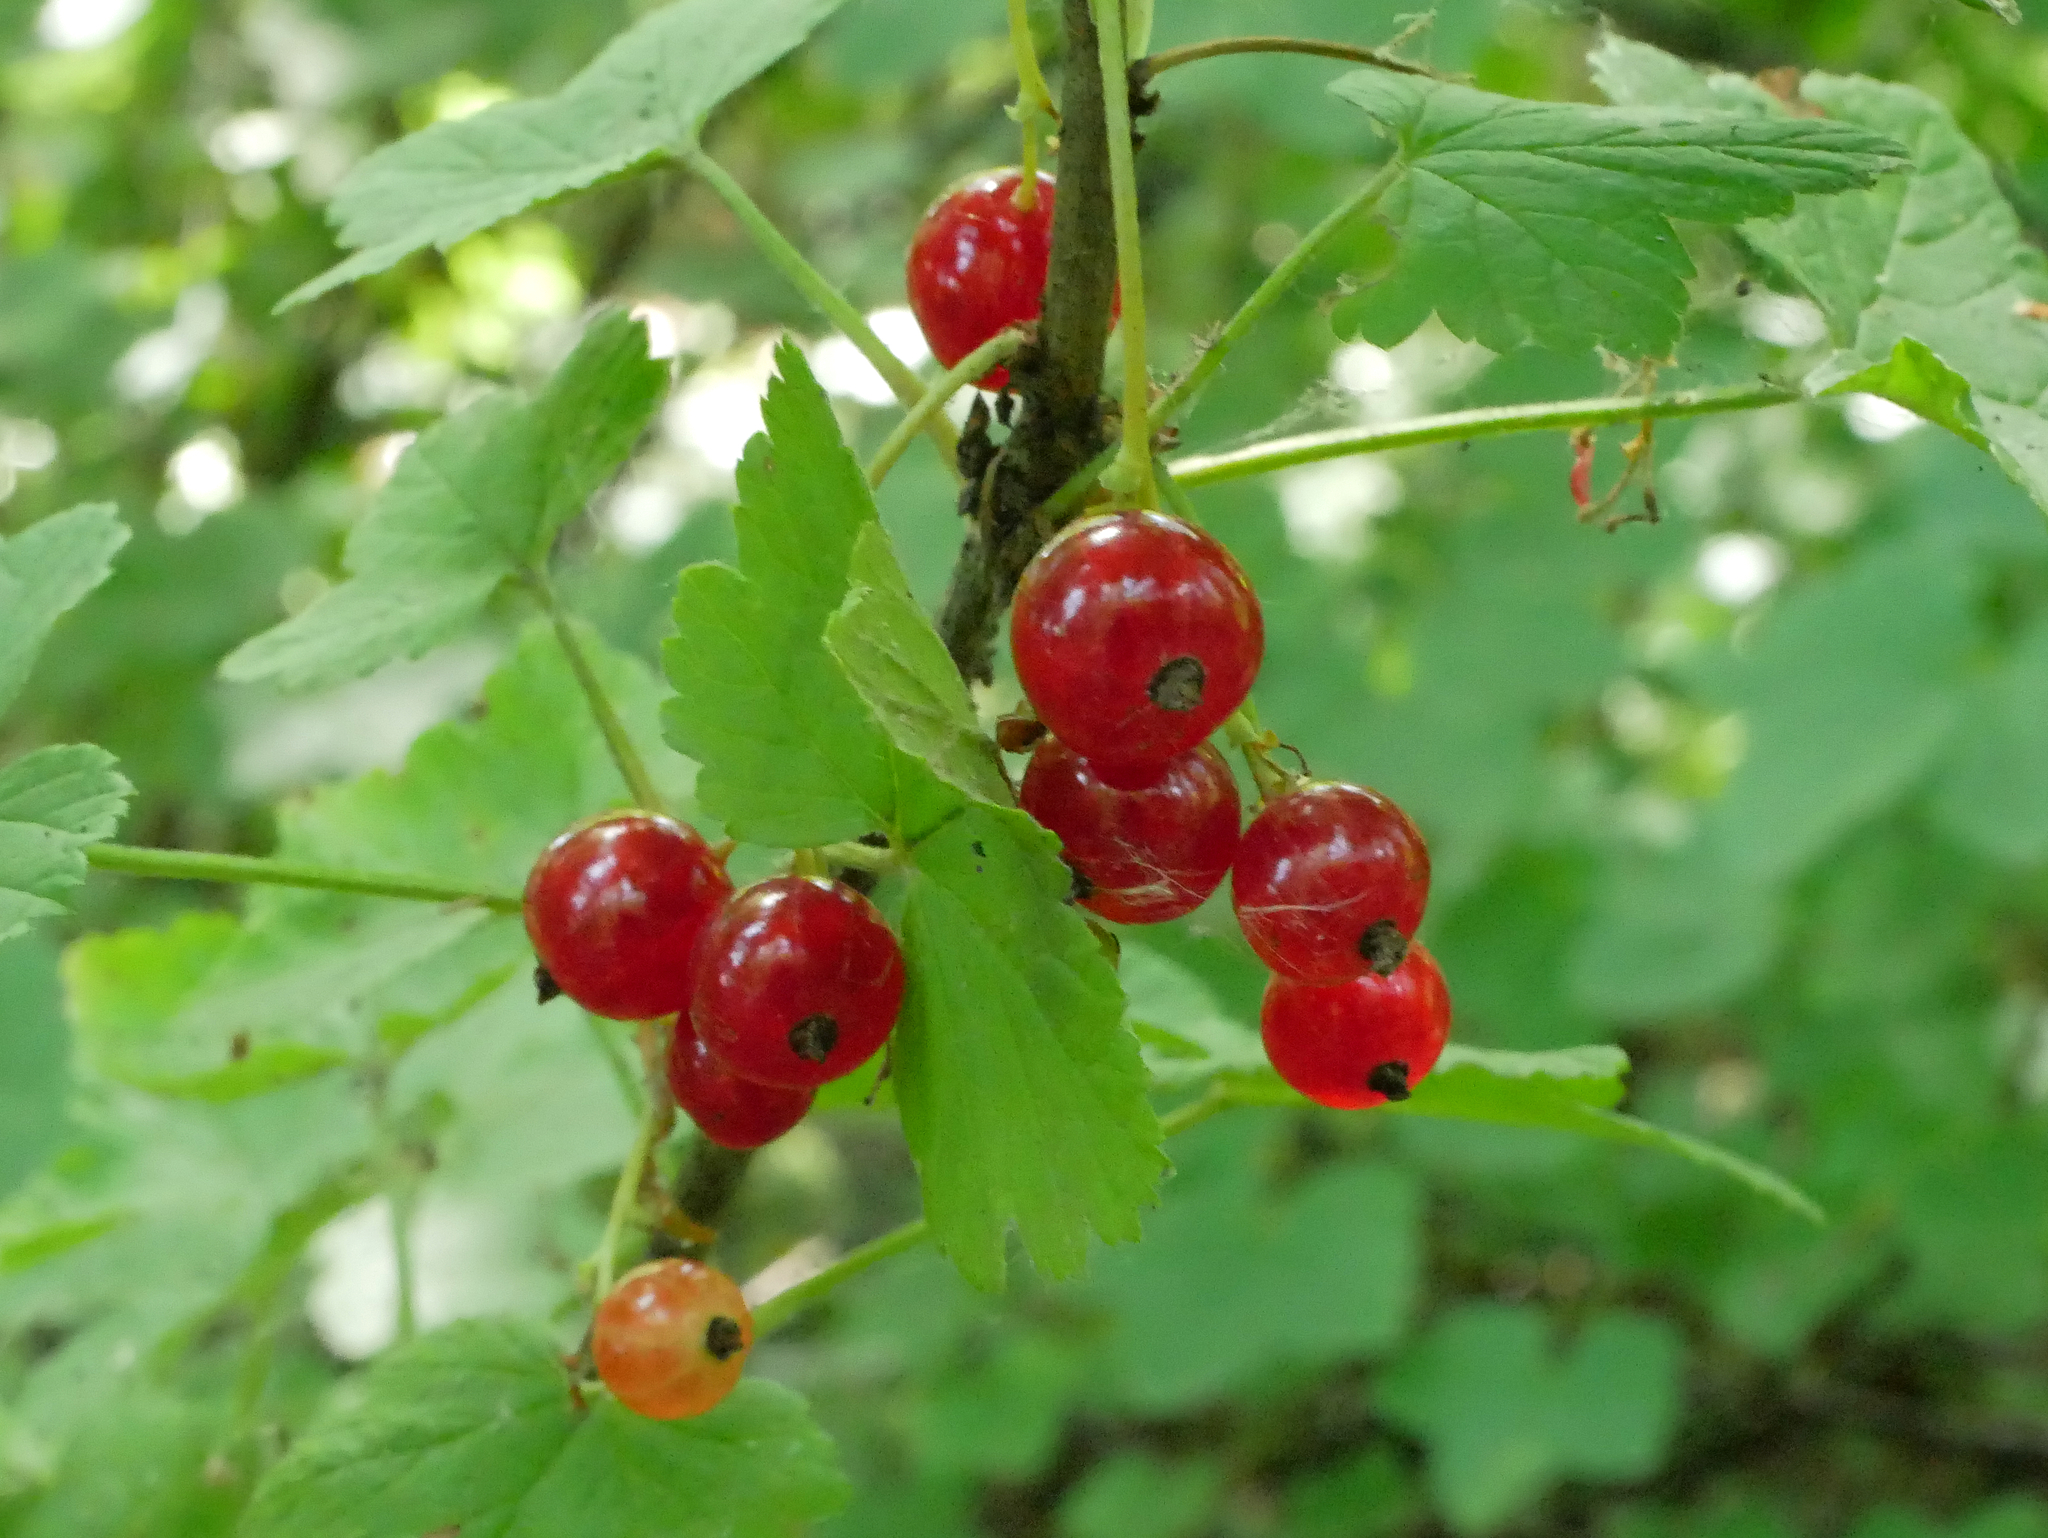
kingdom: Plantae
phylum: Tracheophyta
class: Magnoliopsida
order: Saxifragales
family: Grossulariaceae
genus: Ribes
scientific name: Ribes rubrum
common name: Red currant
